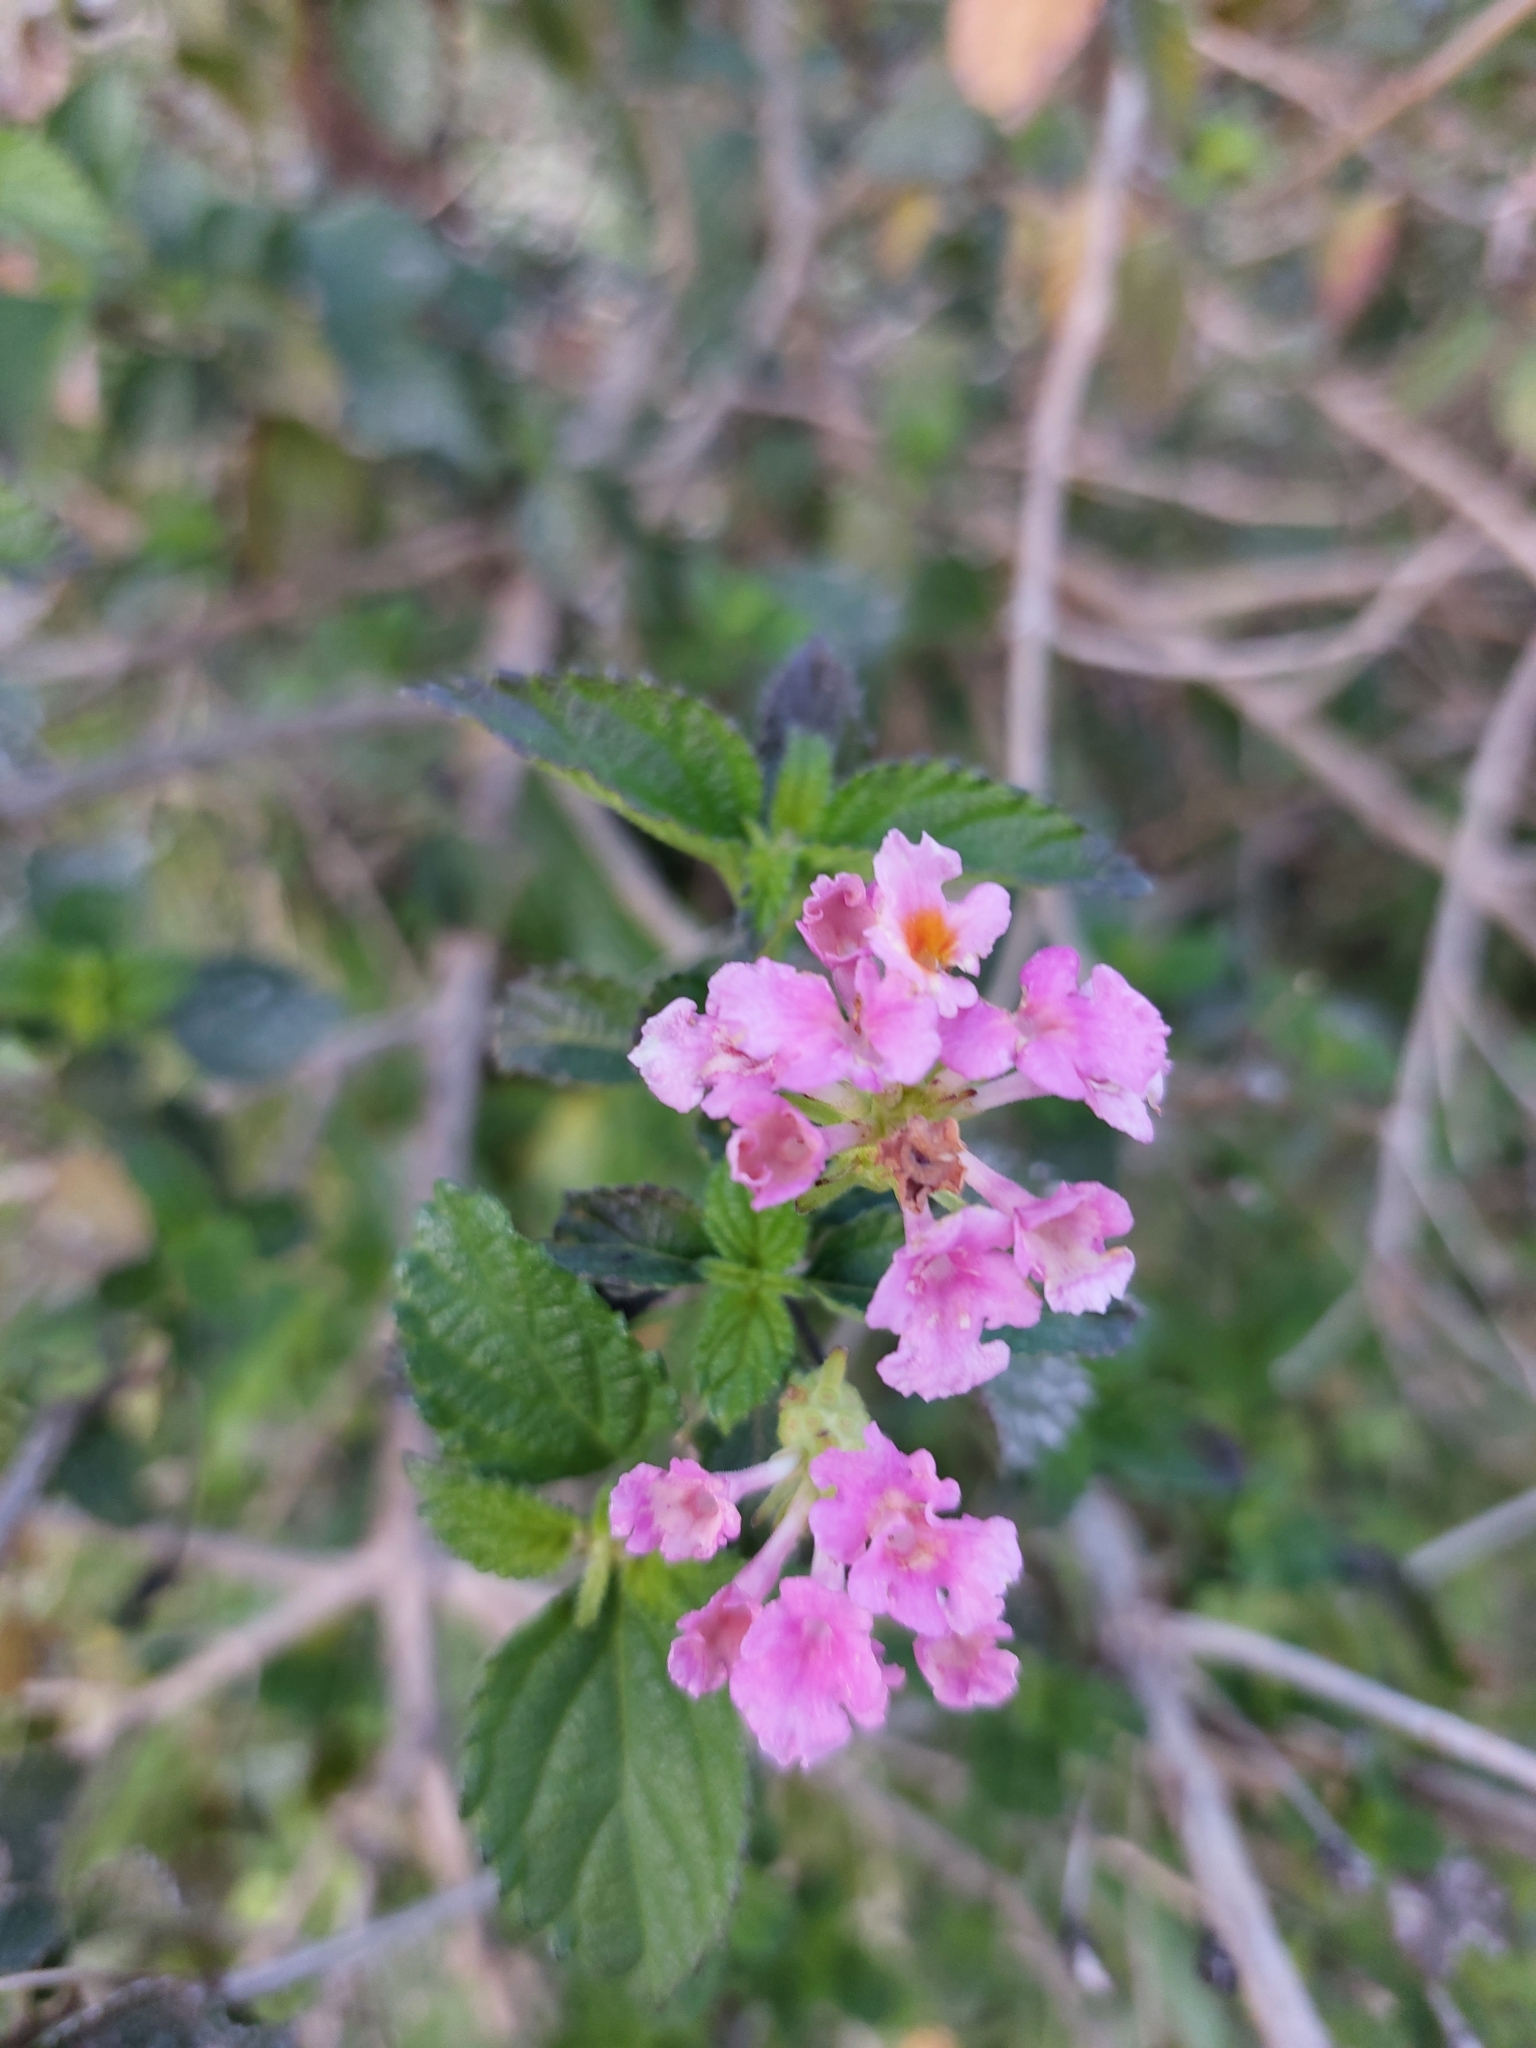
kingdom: Plantae
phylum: Tracheophyta
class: Magnoliopsida
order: Lamiales
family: Verbenaceae
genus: Lantana
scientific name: Lantana camara
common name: Lantana
